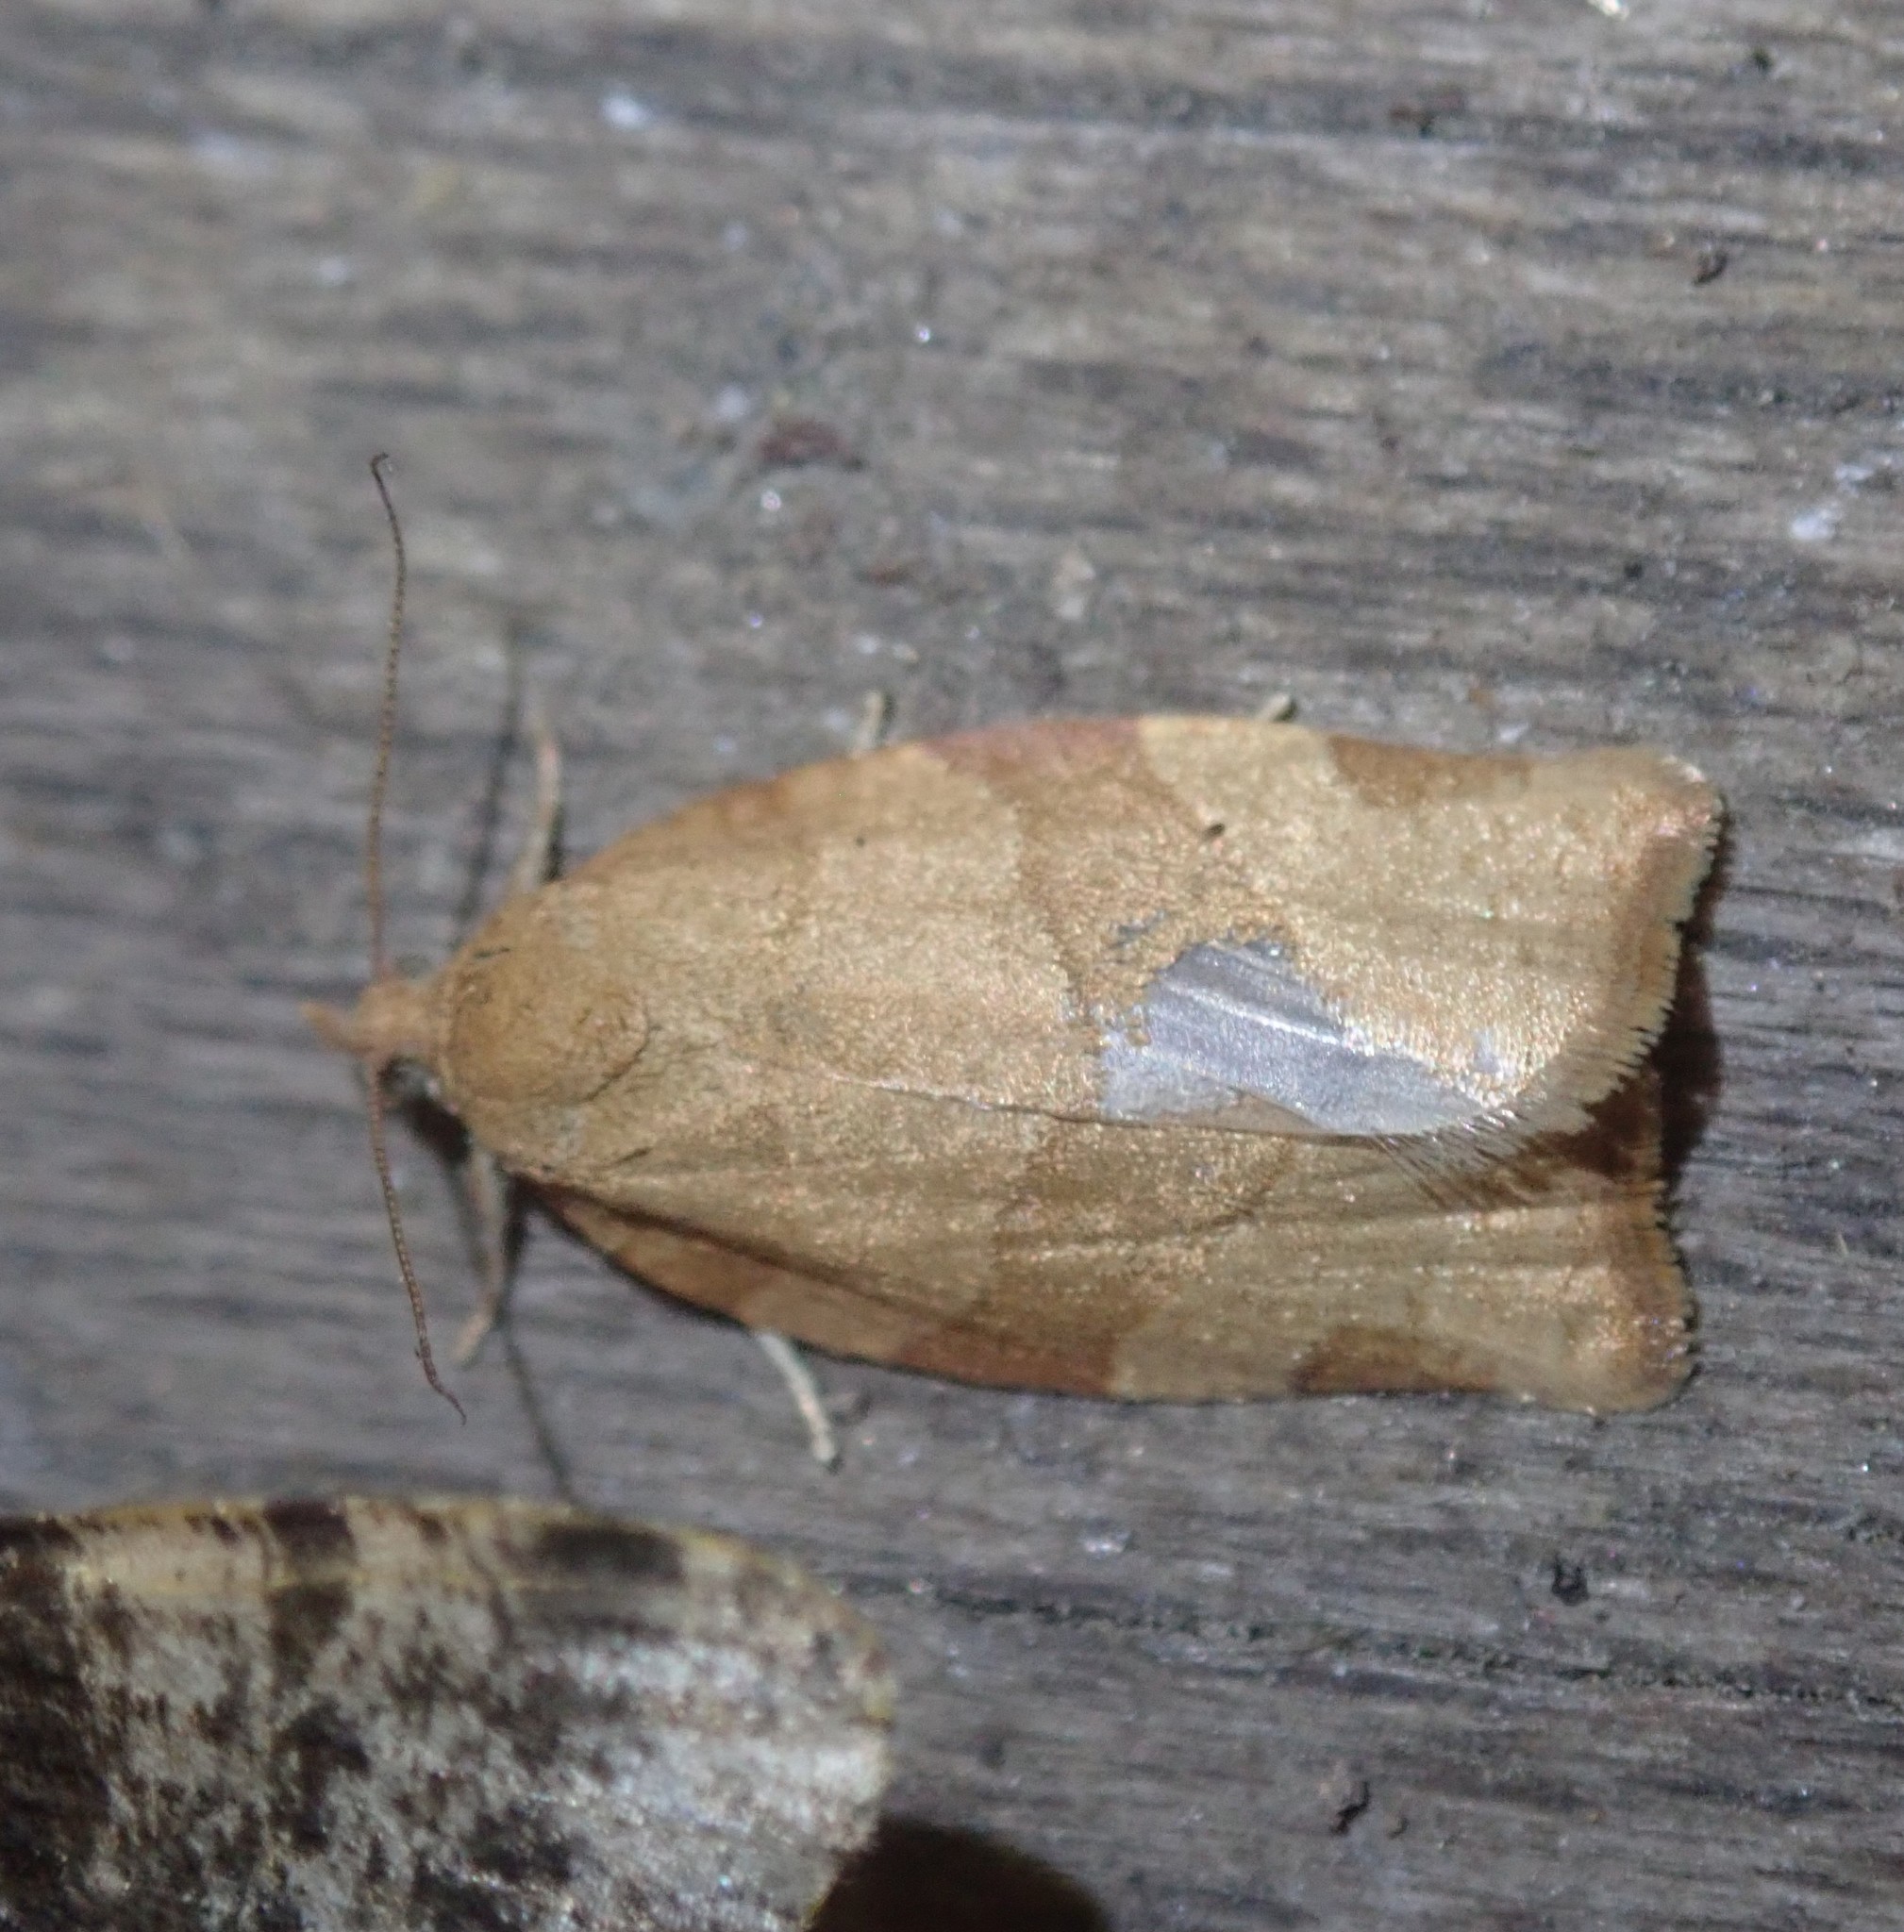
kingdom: Animalia
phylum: Arthropoda
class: Insecta
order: Lepidoptera
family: Tortricidae
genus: Pandemis
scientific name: Pandemis cerasana
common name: Barred fruit-tree tortrix
